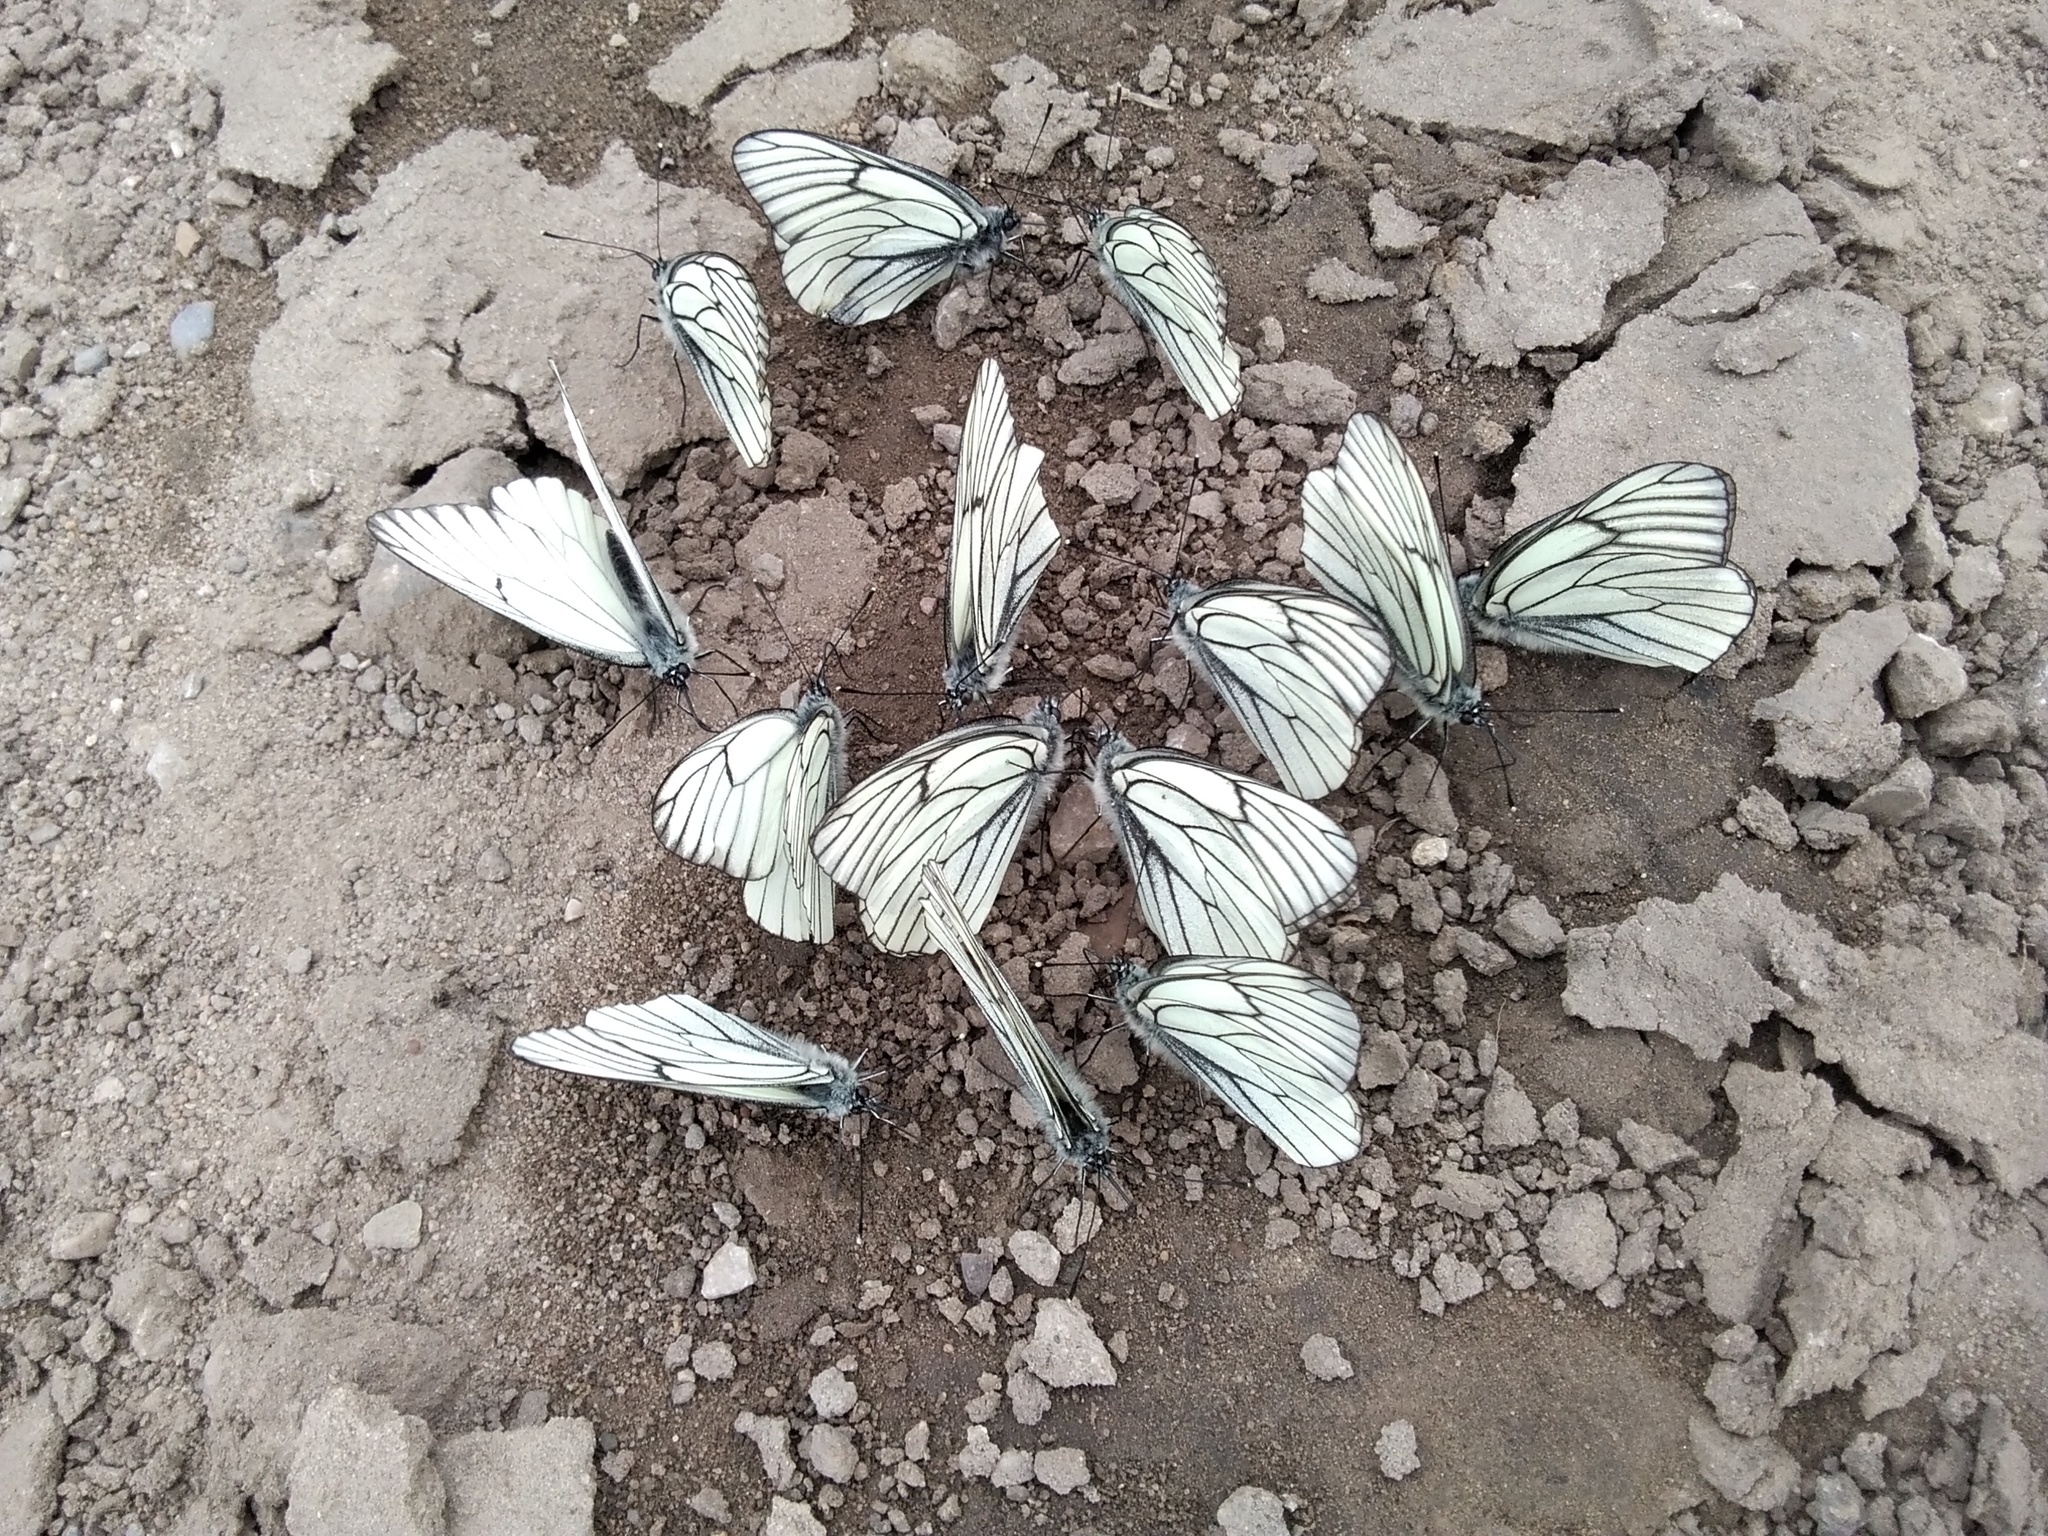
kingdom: Animalia
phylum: Arthropoda
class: Insecta
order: Lepidoptera
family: Pieridae
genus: Aporia
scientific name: Aporia crataegi
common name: Black-veined white
